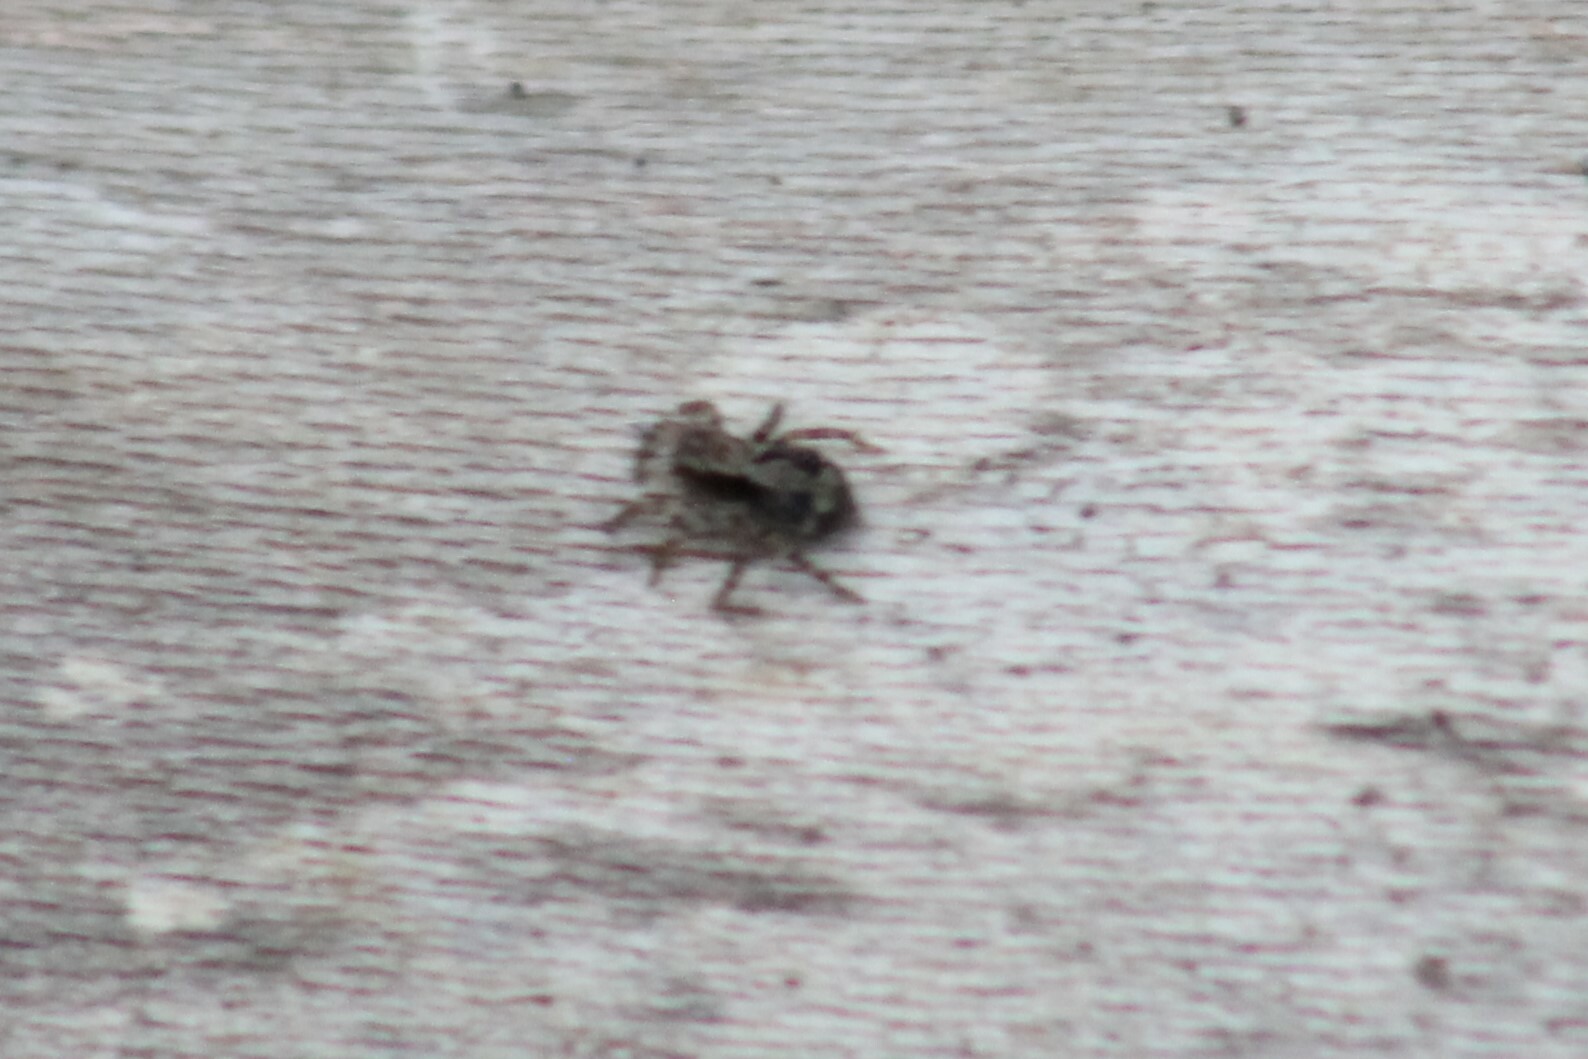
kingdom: Animalia
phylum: Arthropoda
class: Arachnida
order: Araneae
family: Salticidae
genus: Naphrys
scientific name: Naphrys pulex
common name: Flea jumping spider
